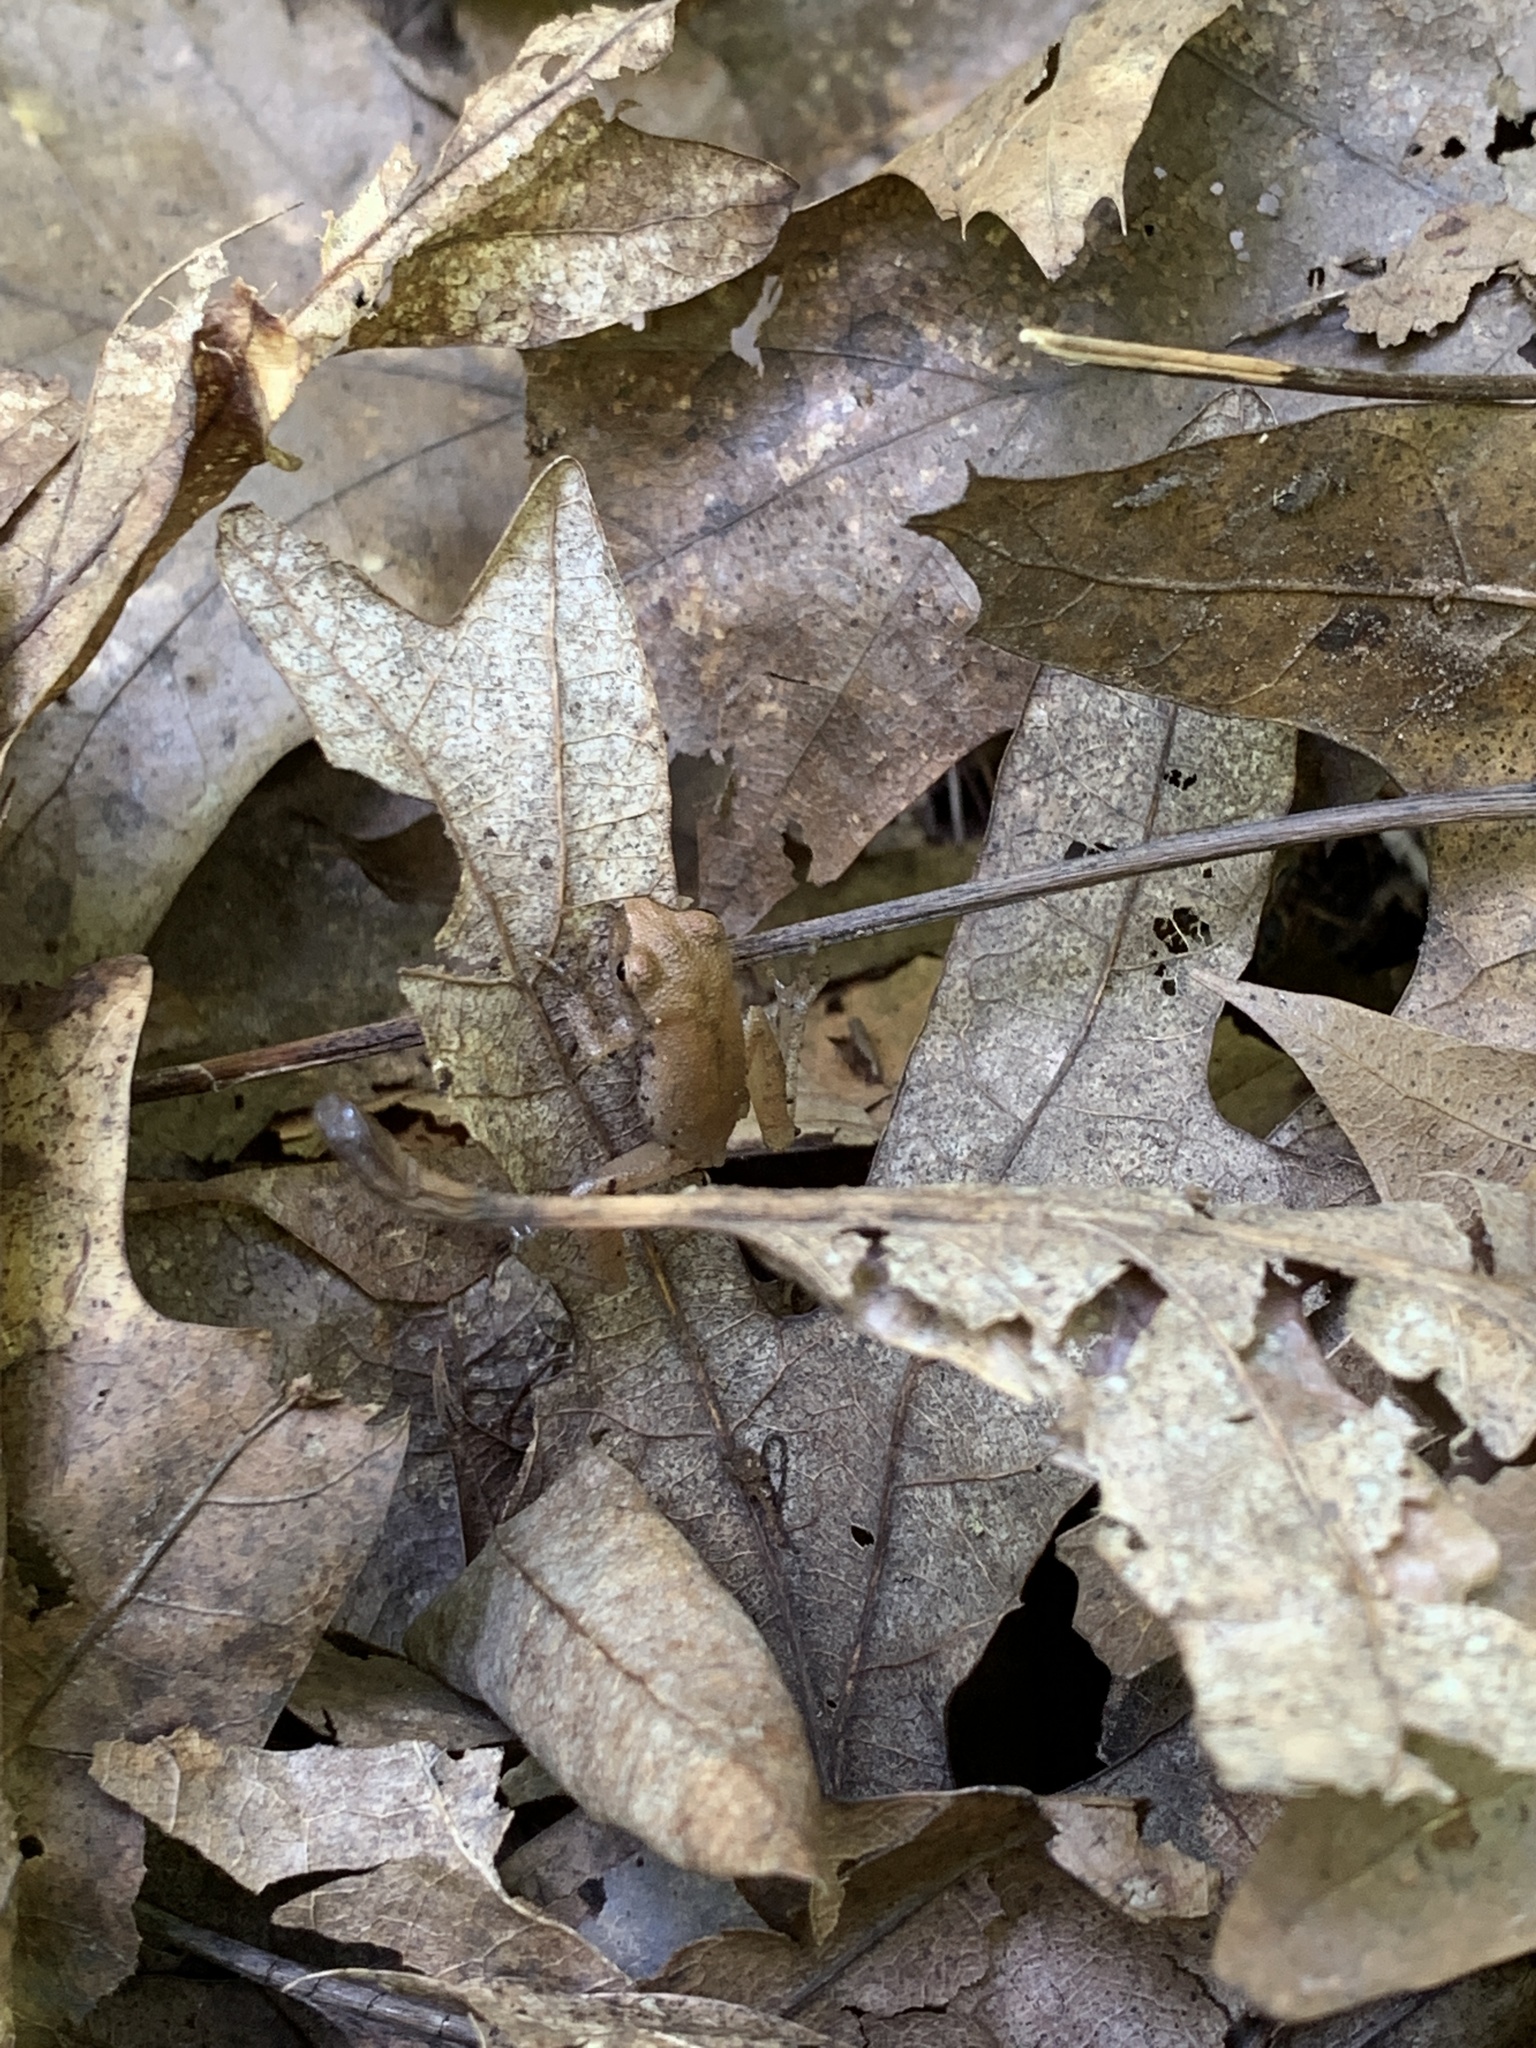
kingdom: Animalia
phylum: Chordata
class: Amphibia
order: Anura
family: Hylidae
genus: Pseudacris
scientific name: Pseudacris crucifer
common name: Spring peeper
